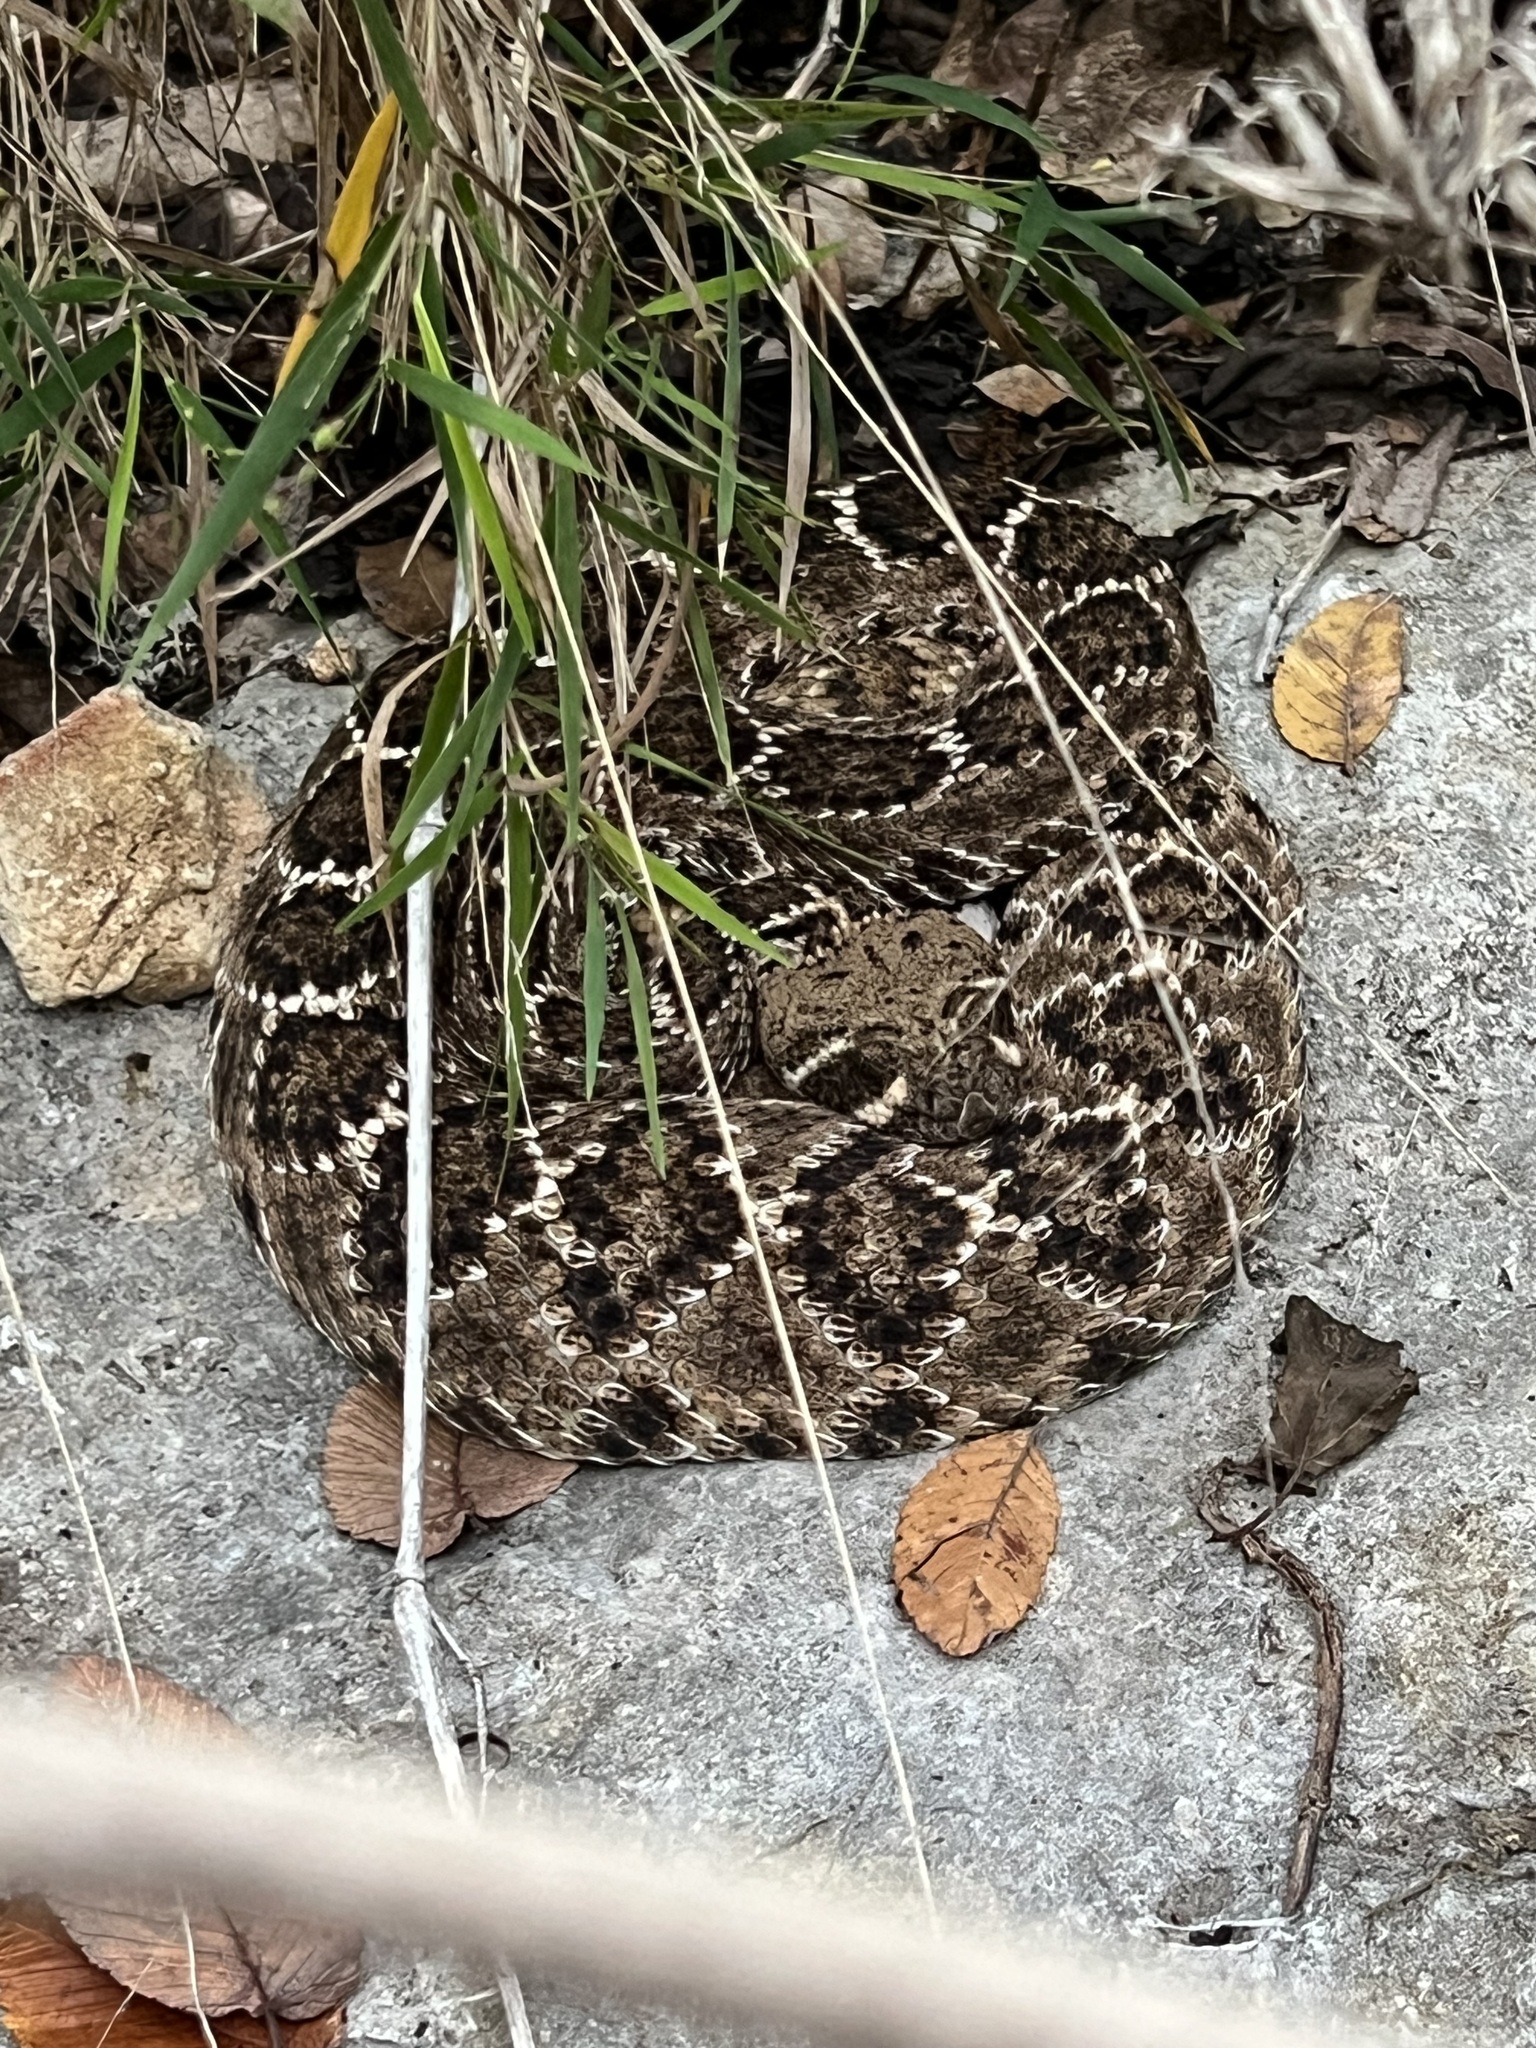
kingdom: Animalia
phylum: Chordata
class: Squamata
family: Viperidae
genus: Crotalus
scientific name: Crotalus atrox
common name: Western diamond-backed rattlesnake
